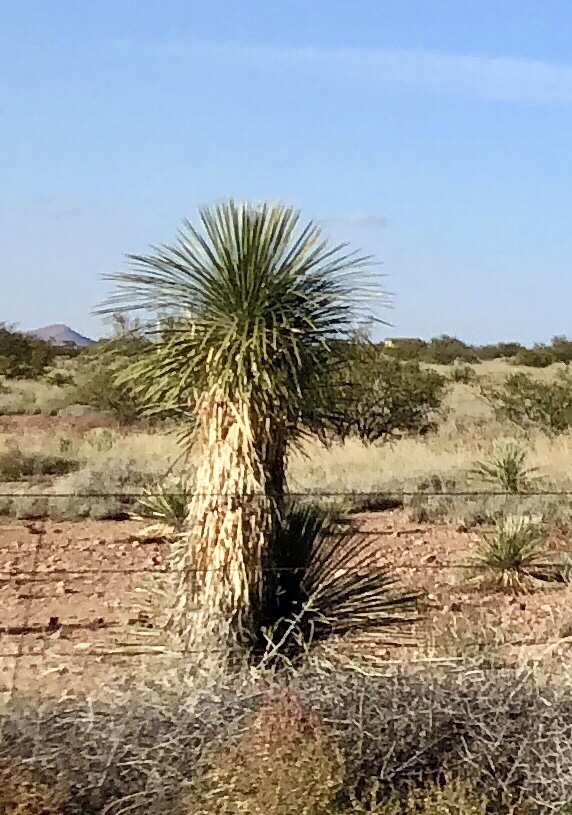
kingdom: Plantae
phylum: Tracheophyta
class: Liliopsida
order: Asparagales
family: Asparagaceae
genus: Yucca
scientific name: Yucca elata
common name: Palmella
